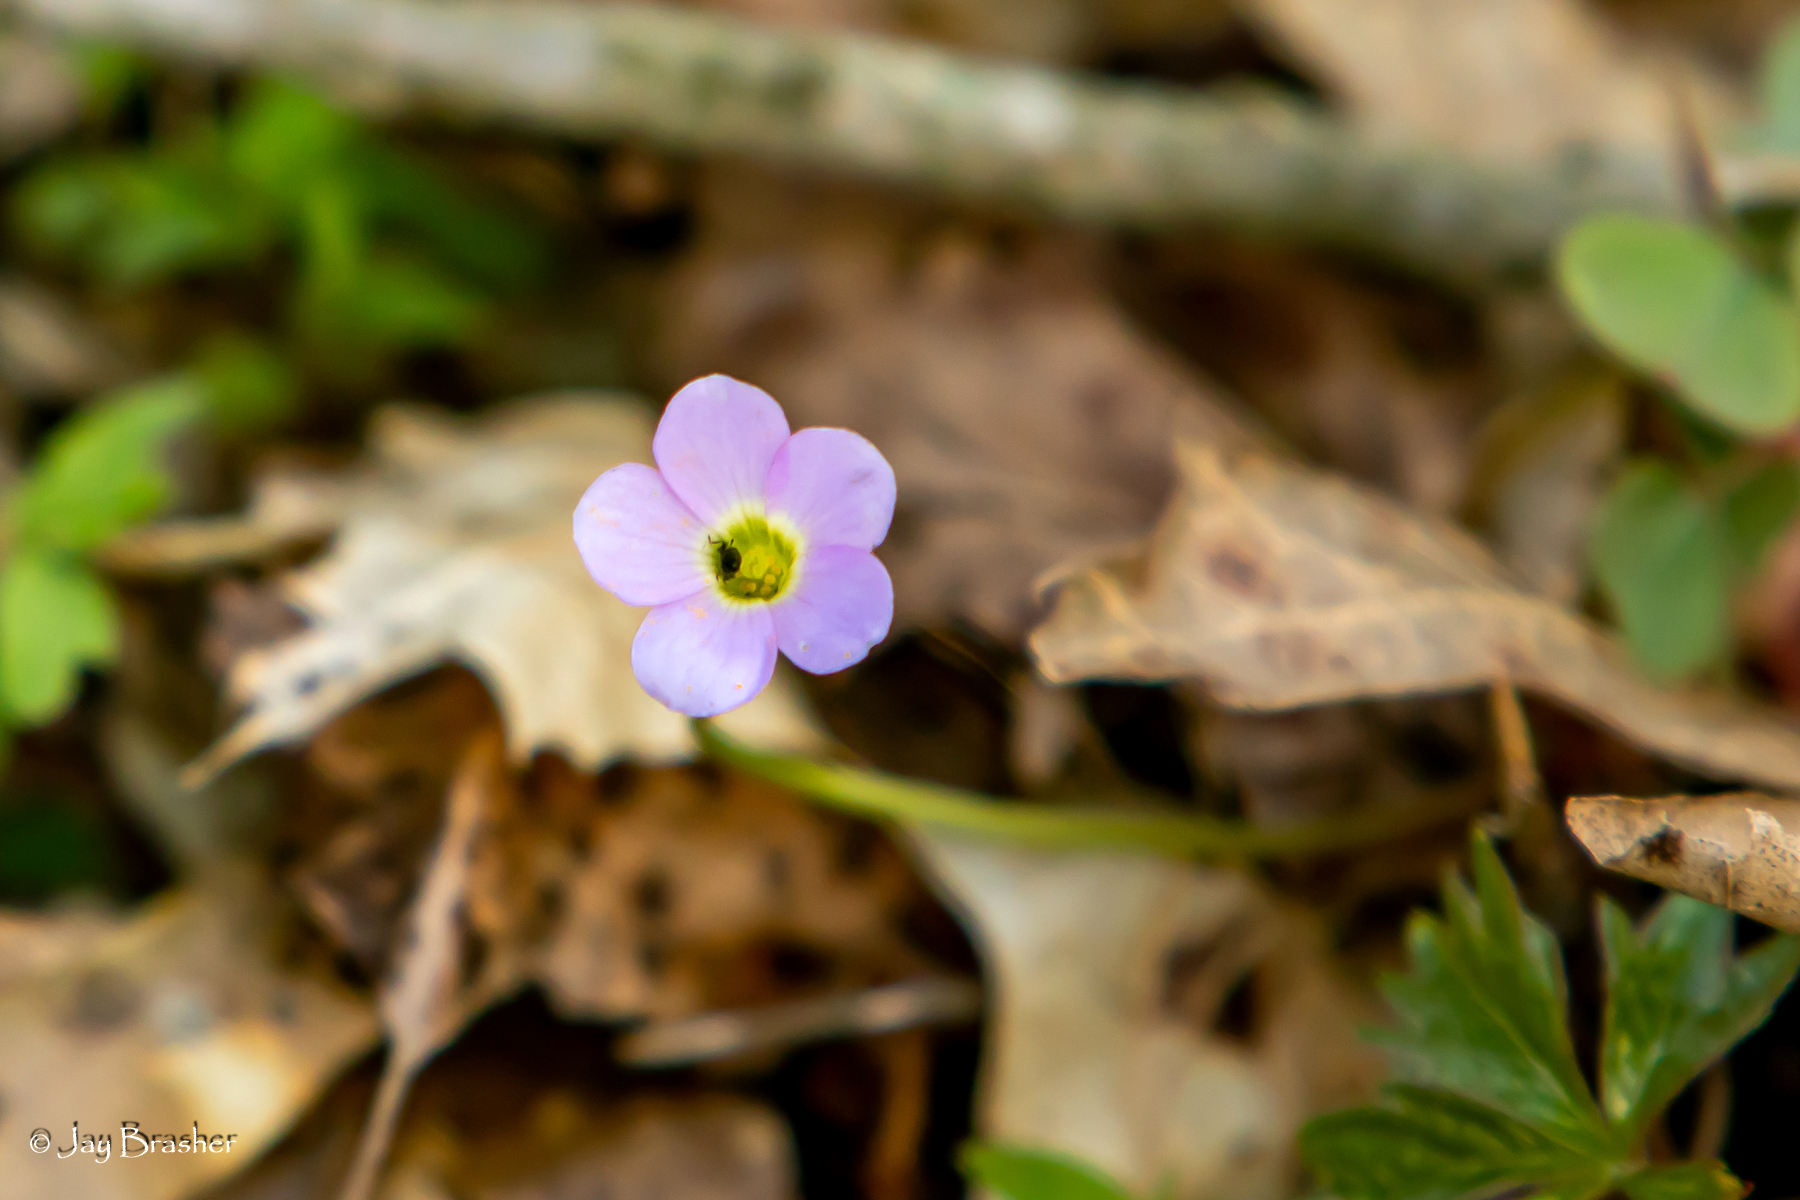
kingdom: Plantae
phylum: Tracheophyta
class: Magnoliopsida
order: Oxalidales
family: Oxalidaceae
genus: Oxalis
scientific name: Oxalis violacea
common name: Violet wood-sorrel
